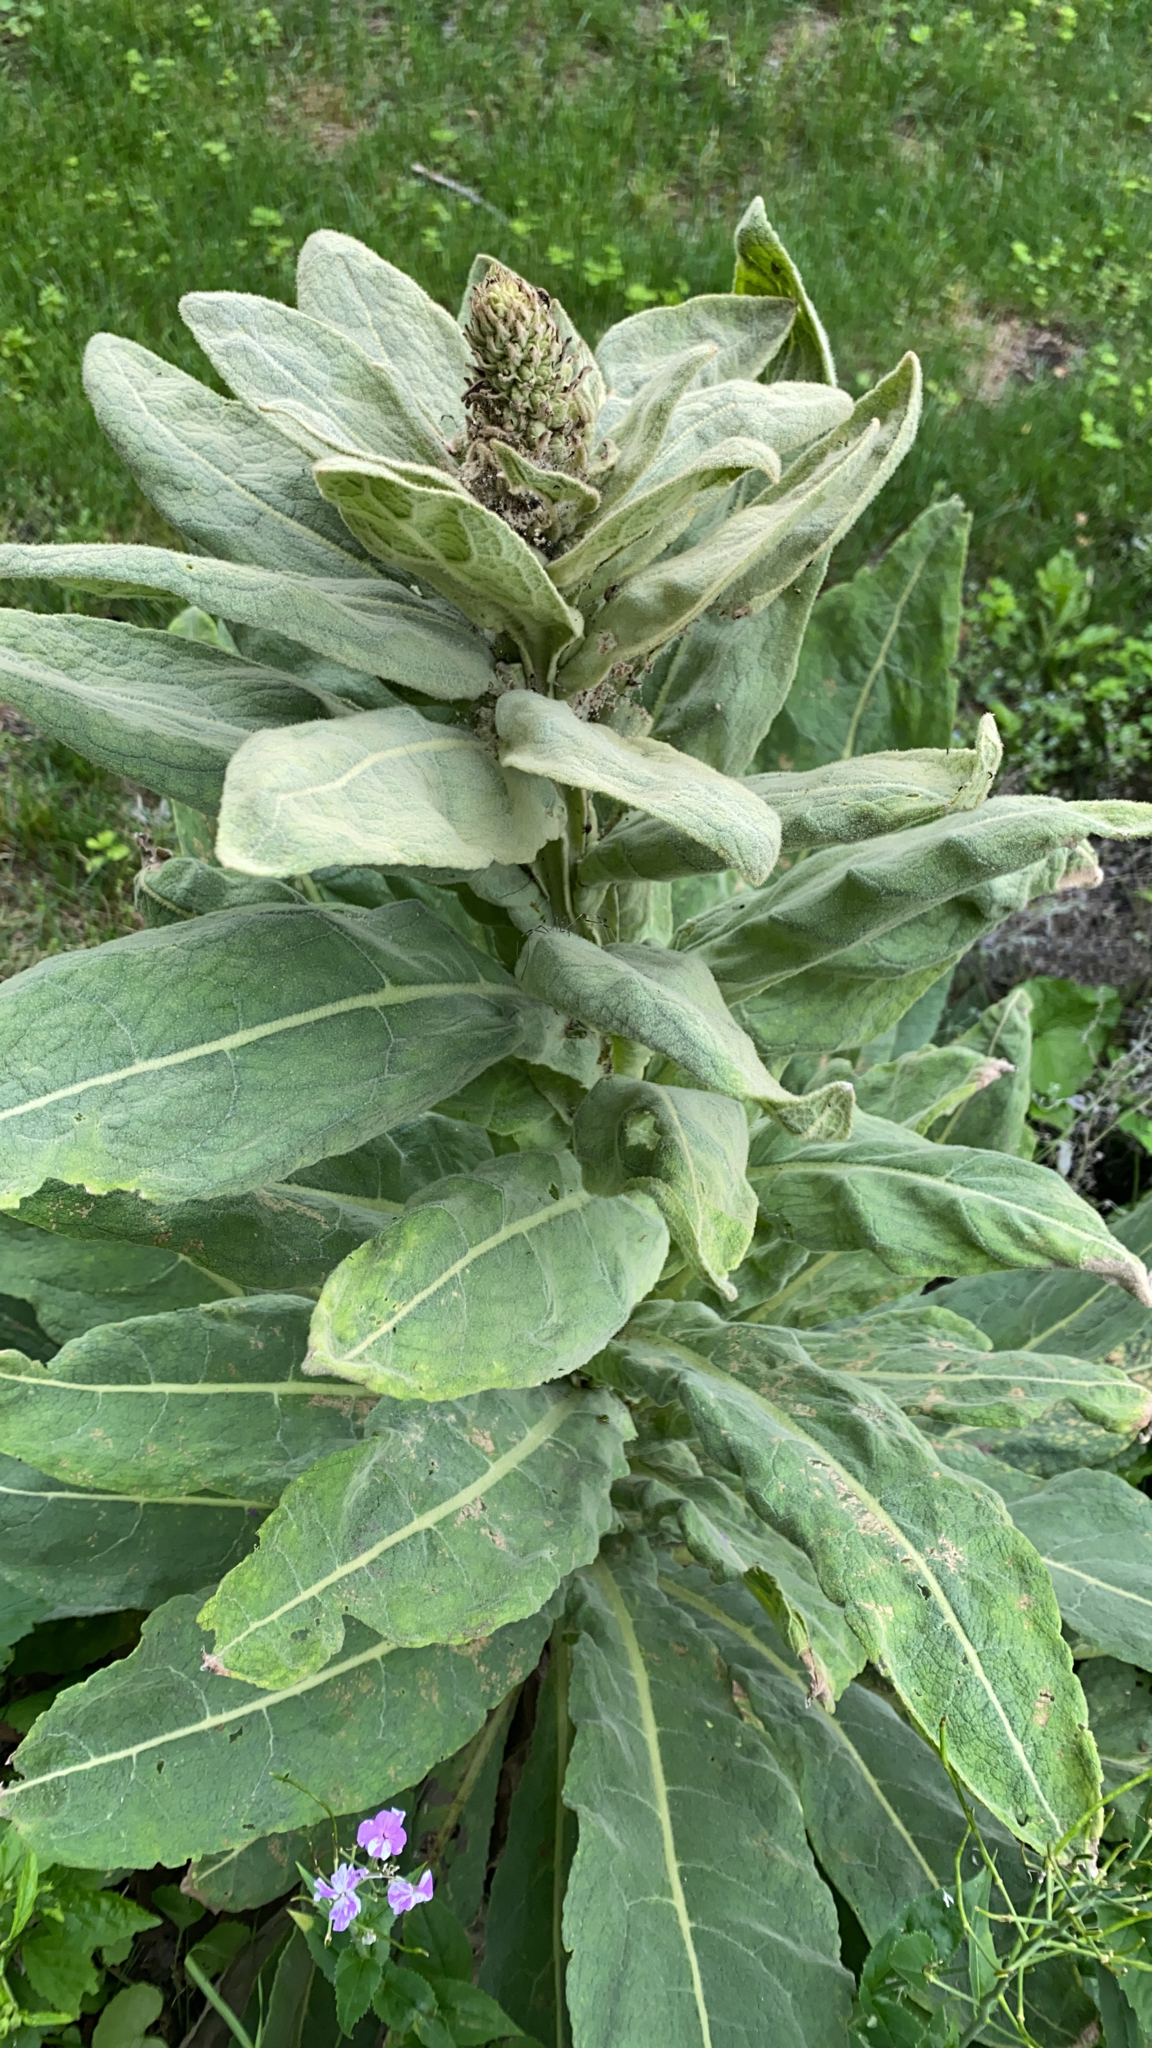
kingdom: Plantae
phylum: Tracheophyta
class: Magnoliopsida
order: Lamiales
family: Scrophulariaceae
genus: Verbascum
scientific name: Verbascum thapsus
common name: Common mullein
